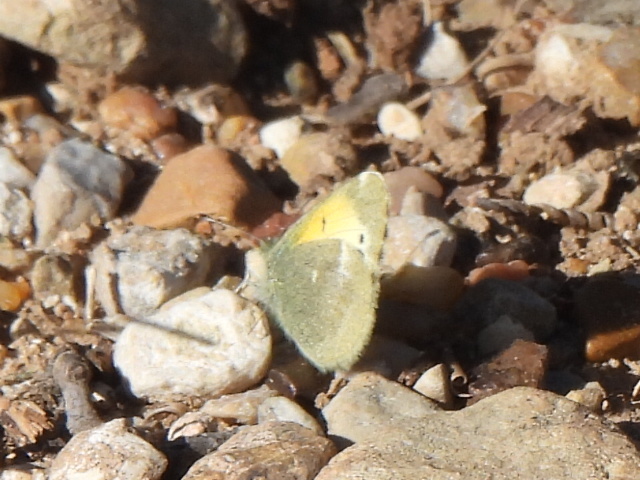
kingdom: Animalia
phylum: Arthropoda
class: Insecta
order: Lepidoptera
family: Pieridae
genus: Nathalis
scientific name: Nathalis iole
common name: Dainty sulphur
